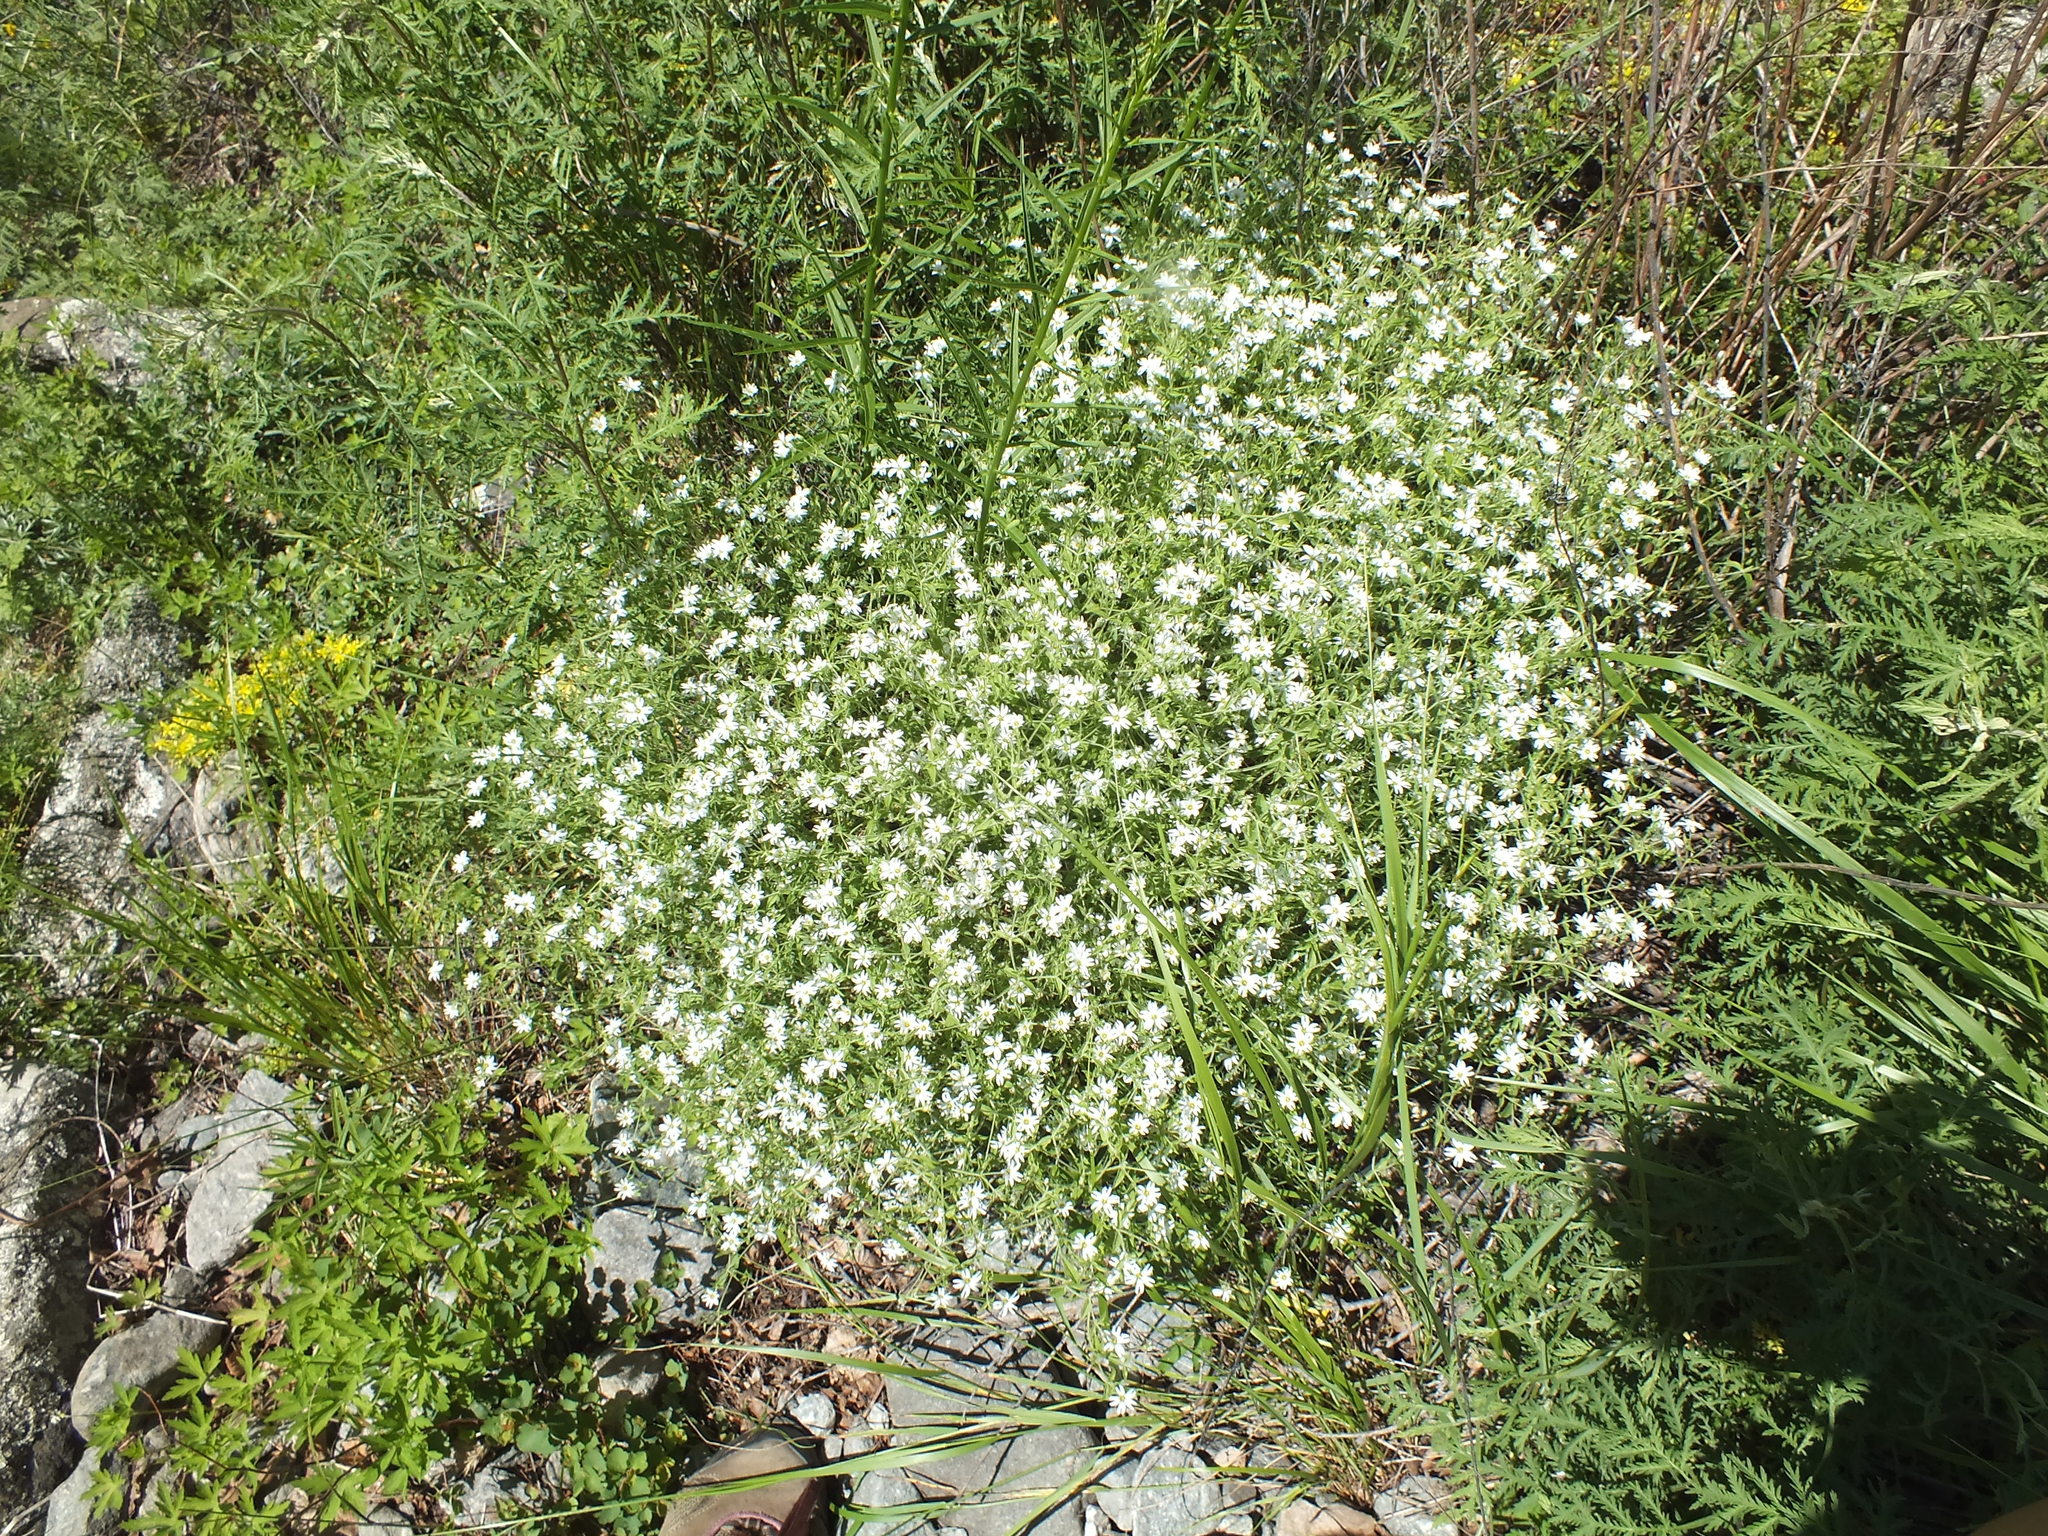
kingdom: Plantae
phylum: Tracheophyta
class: Magnoliopsida
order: Caryophyllales
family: Caryophyllaceae
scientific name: Caryophyllaceae
